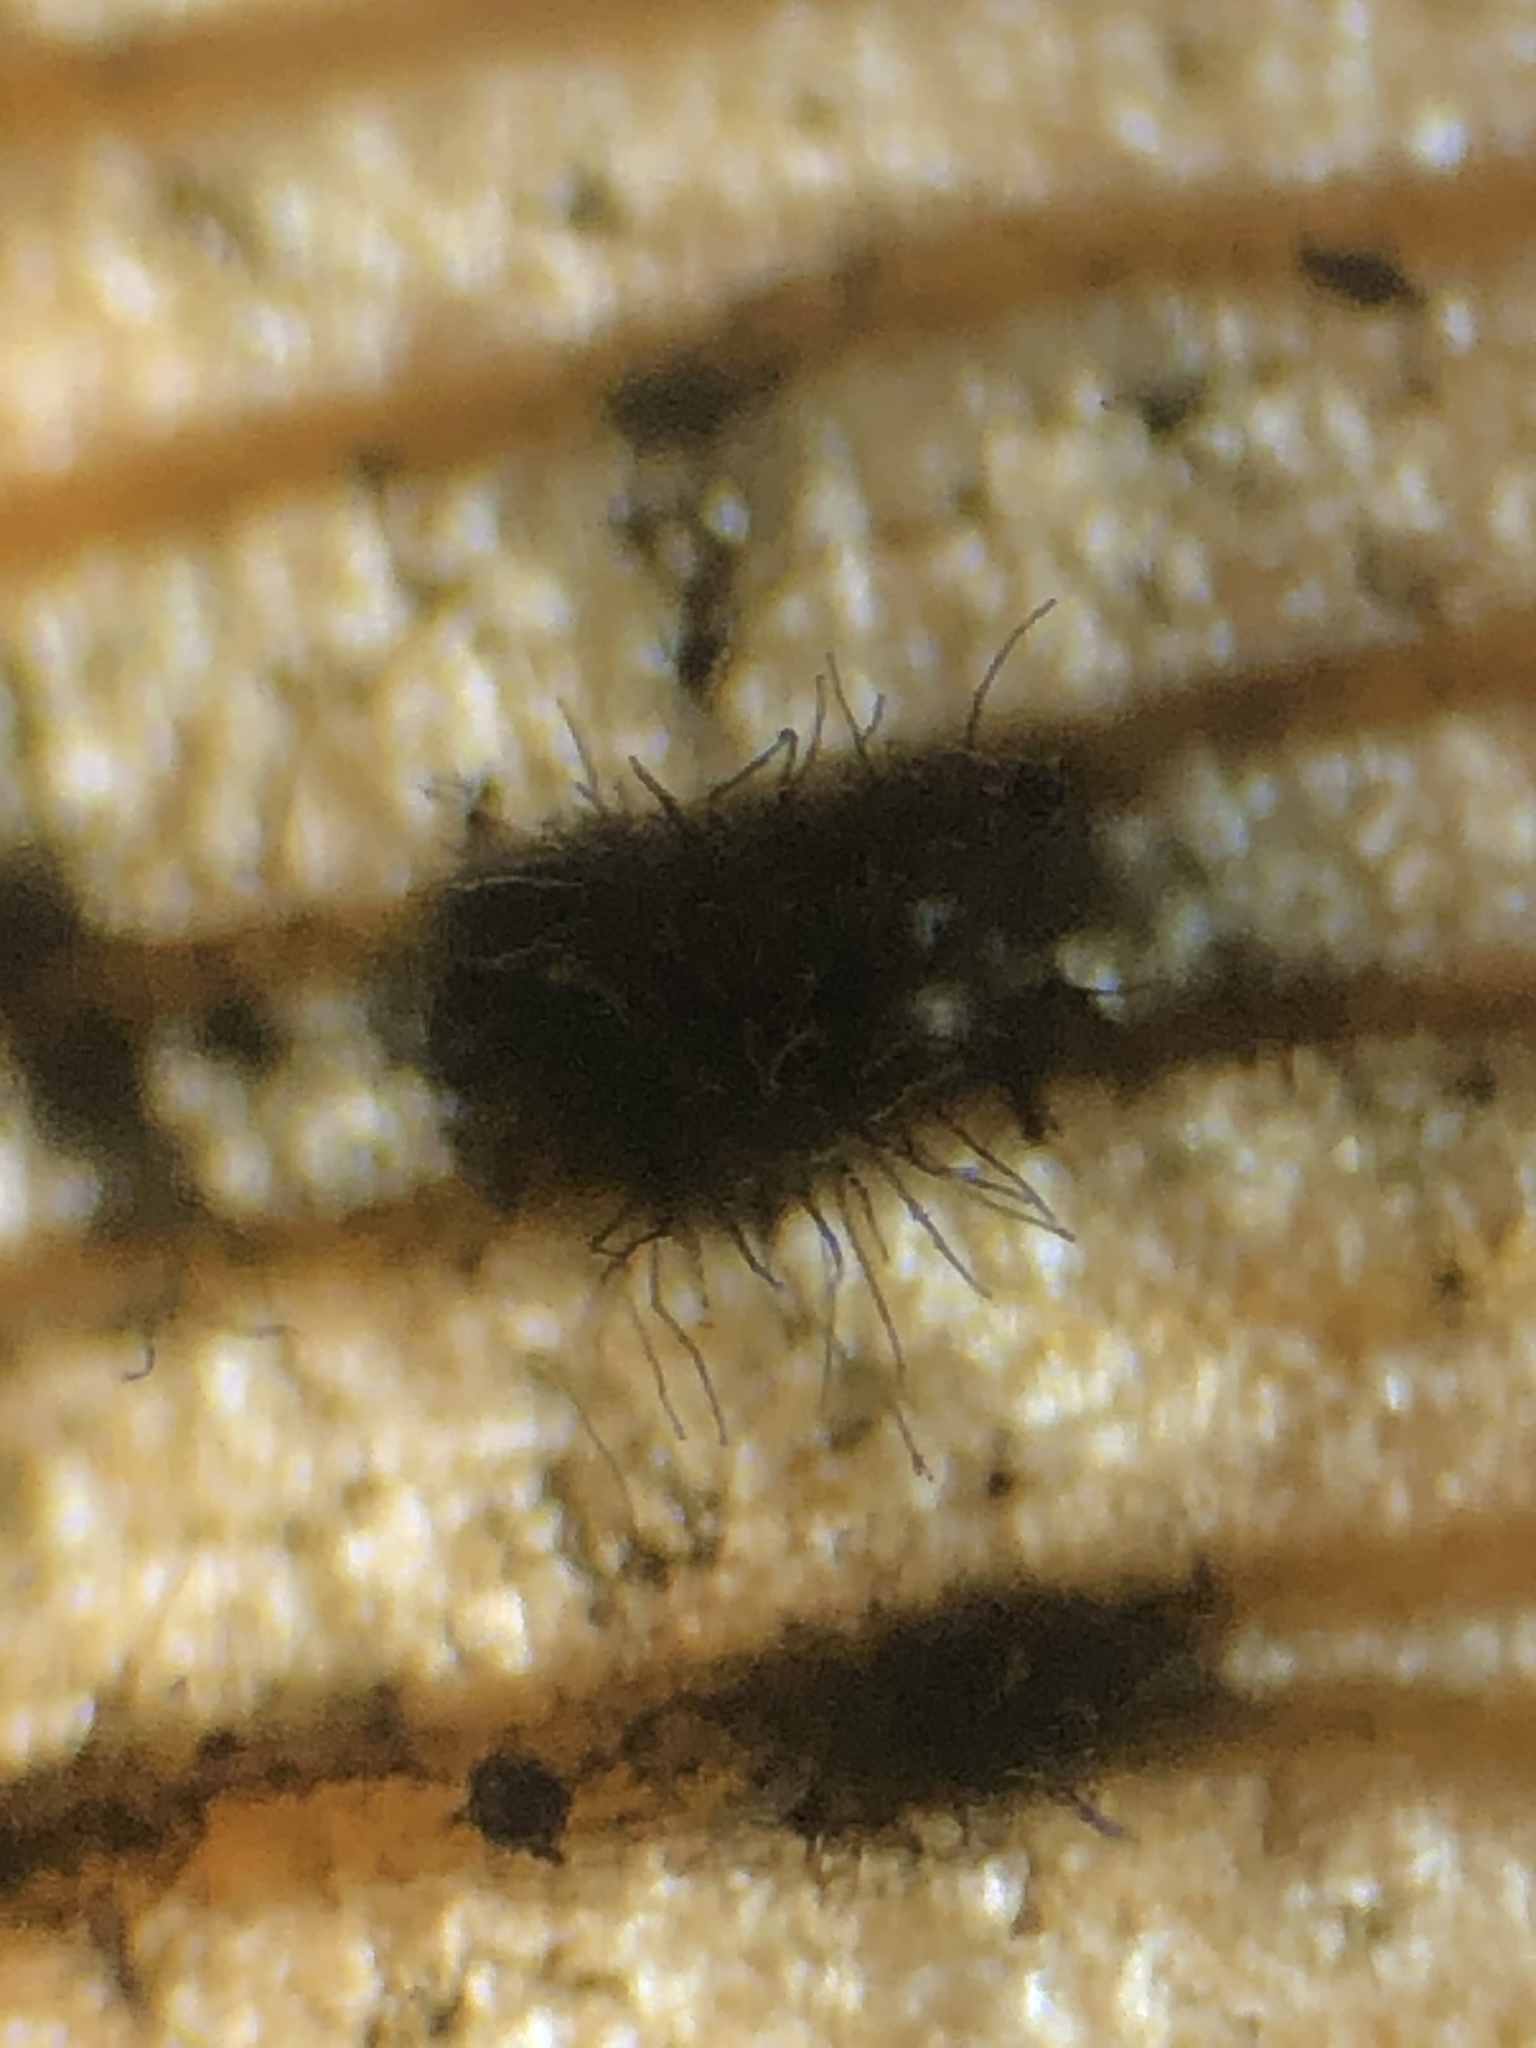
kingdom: Fungi
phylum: Basidiomycota
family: Bartheletiaceae
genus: Bartheletia
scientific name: Bartheletia paradoxa
